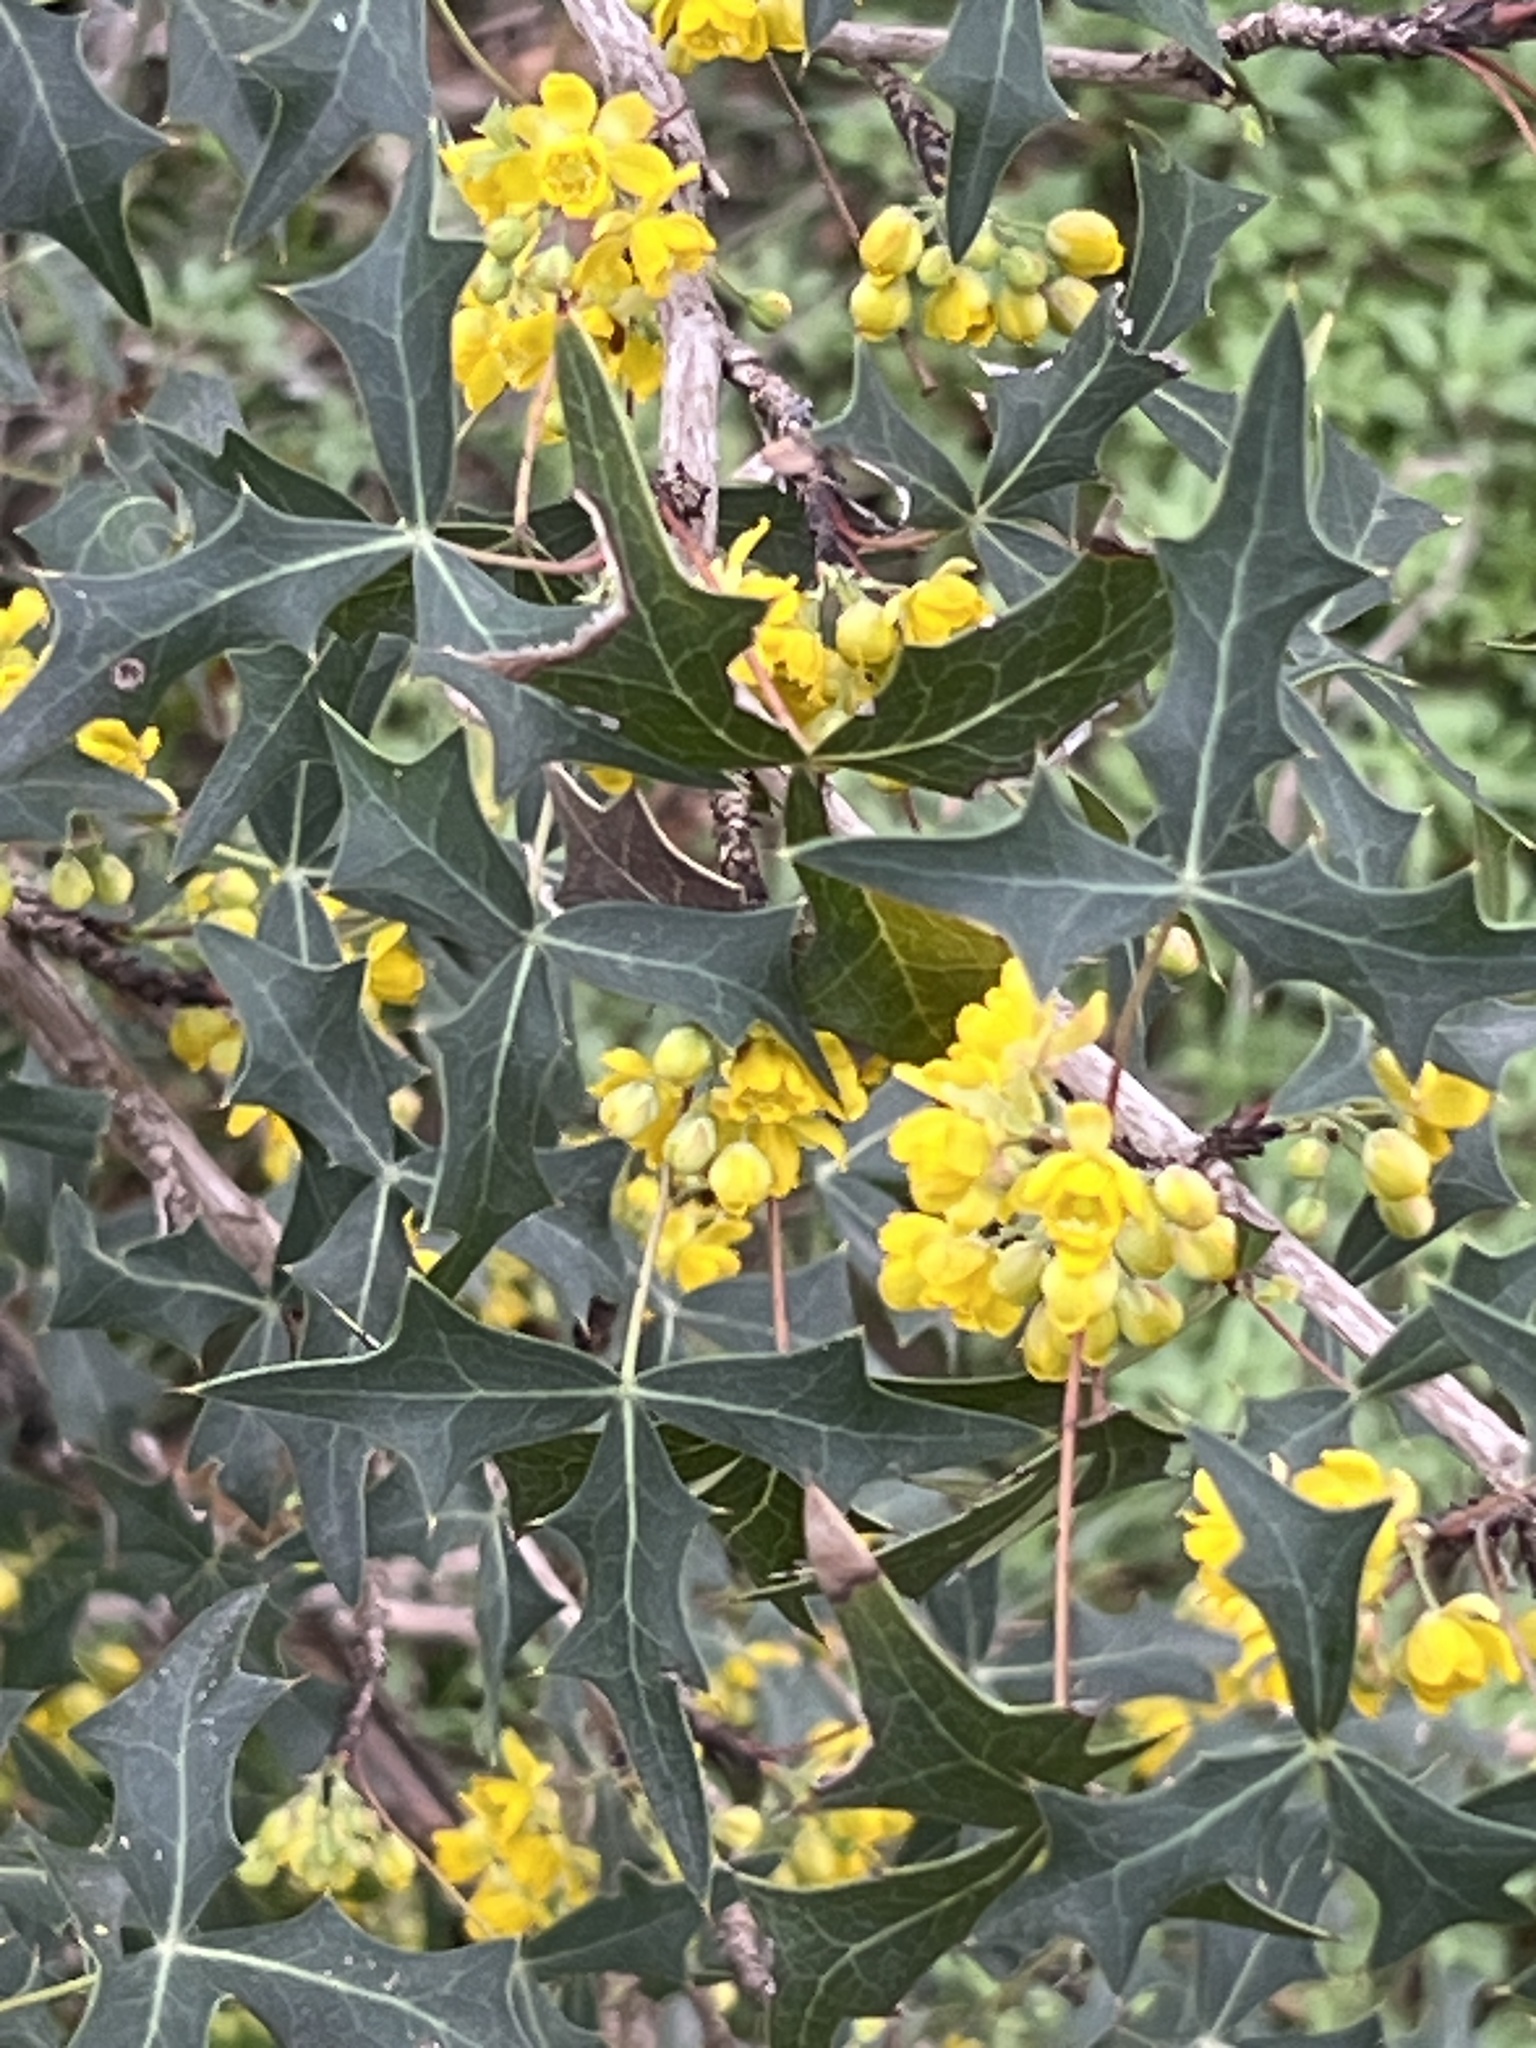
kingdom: Plantae
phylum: Tracheophyta
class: Magnoliopsida
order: Ranunculales
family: Berberidaceae
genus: Alloberberis
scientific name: Alloberberis trifoliolata
